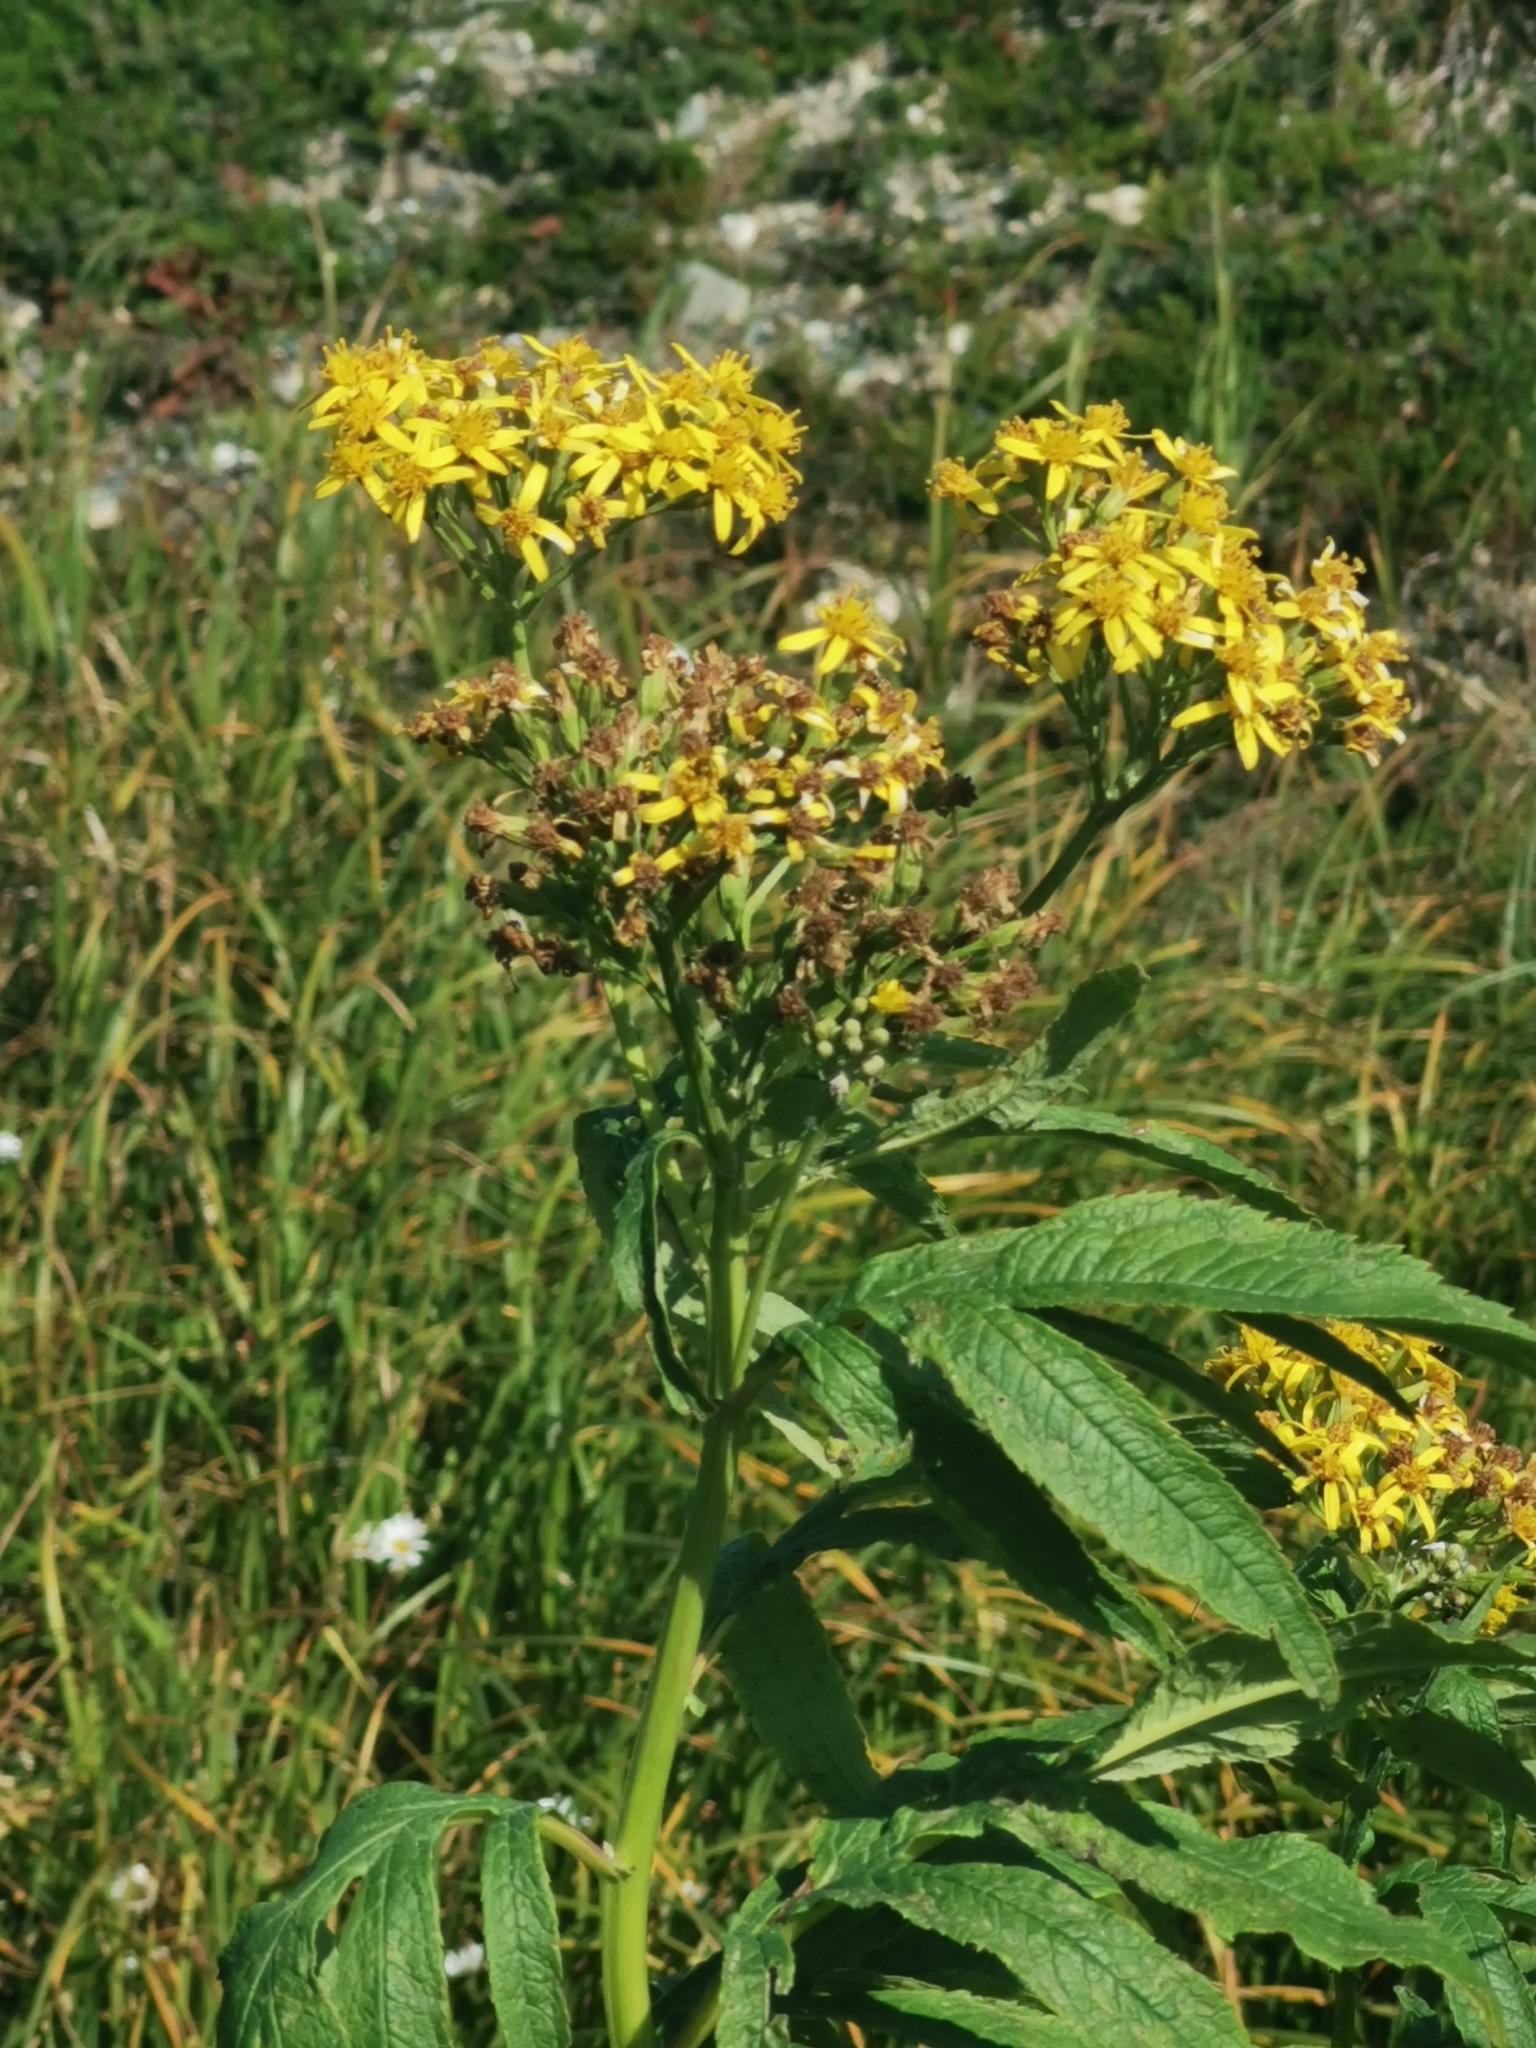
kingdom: Plantae
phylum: Tracheophyta
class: Magnoliopsida
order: Asterales
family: Asteraceae
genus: Jacobaea
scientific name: Jacobaea cannabifolia
